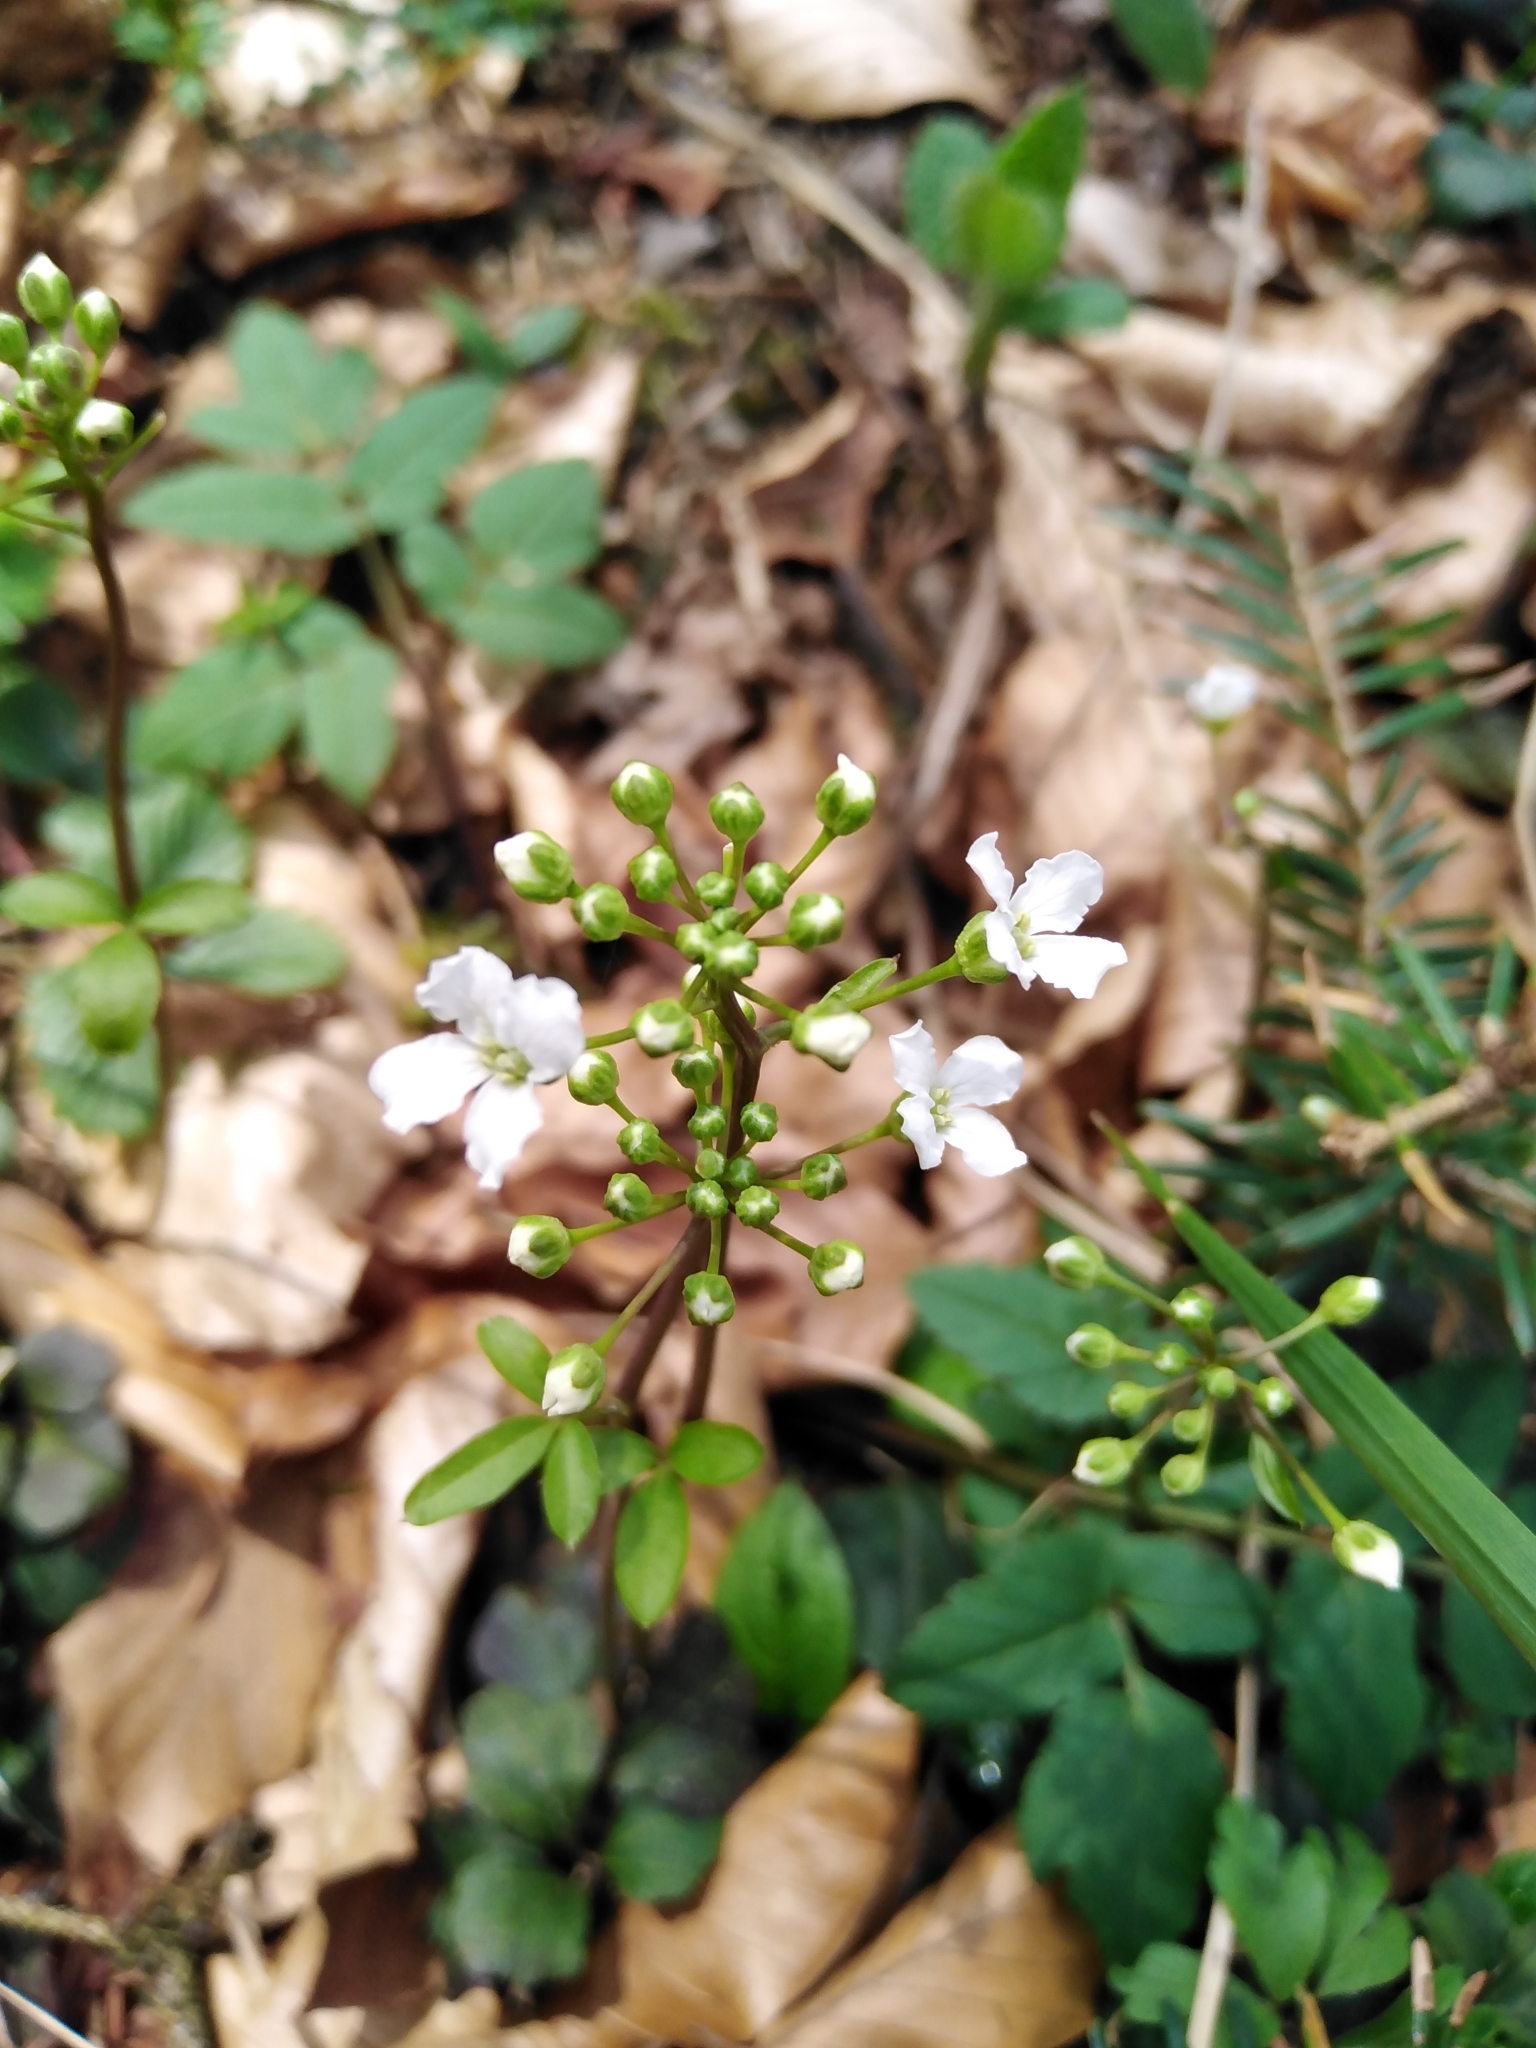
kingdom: Plantae
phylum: Tracheophyta
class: Magnoliopsida
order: Brassicales
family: Brassicaceae
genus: Cardamine
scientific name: Cardamine trifolia
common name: Trefoil cress
